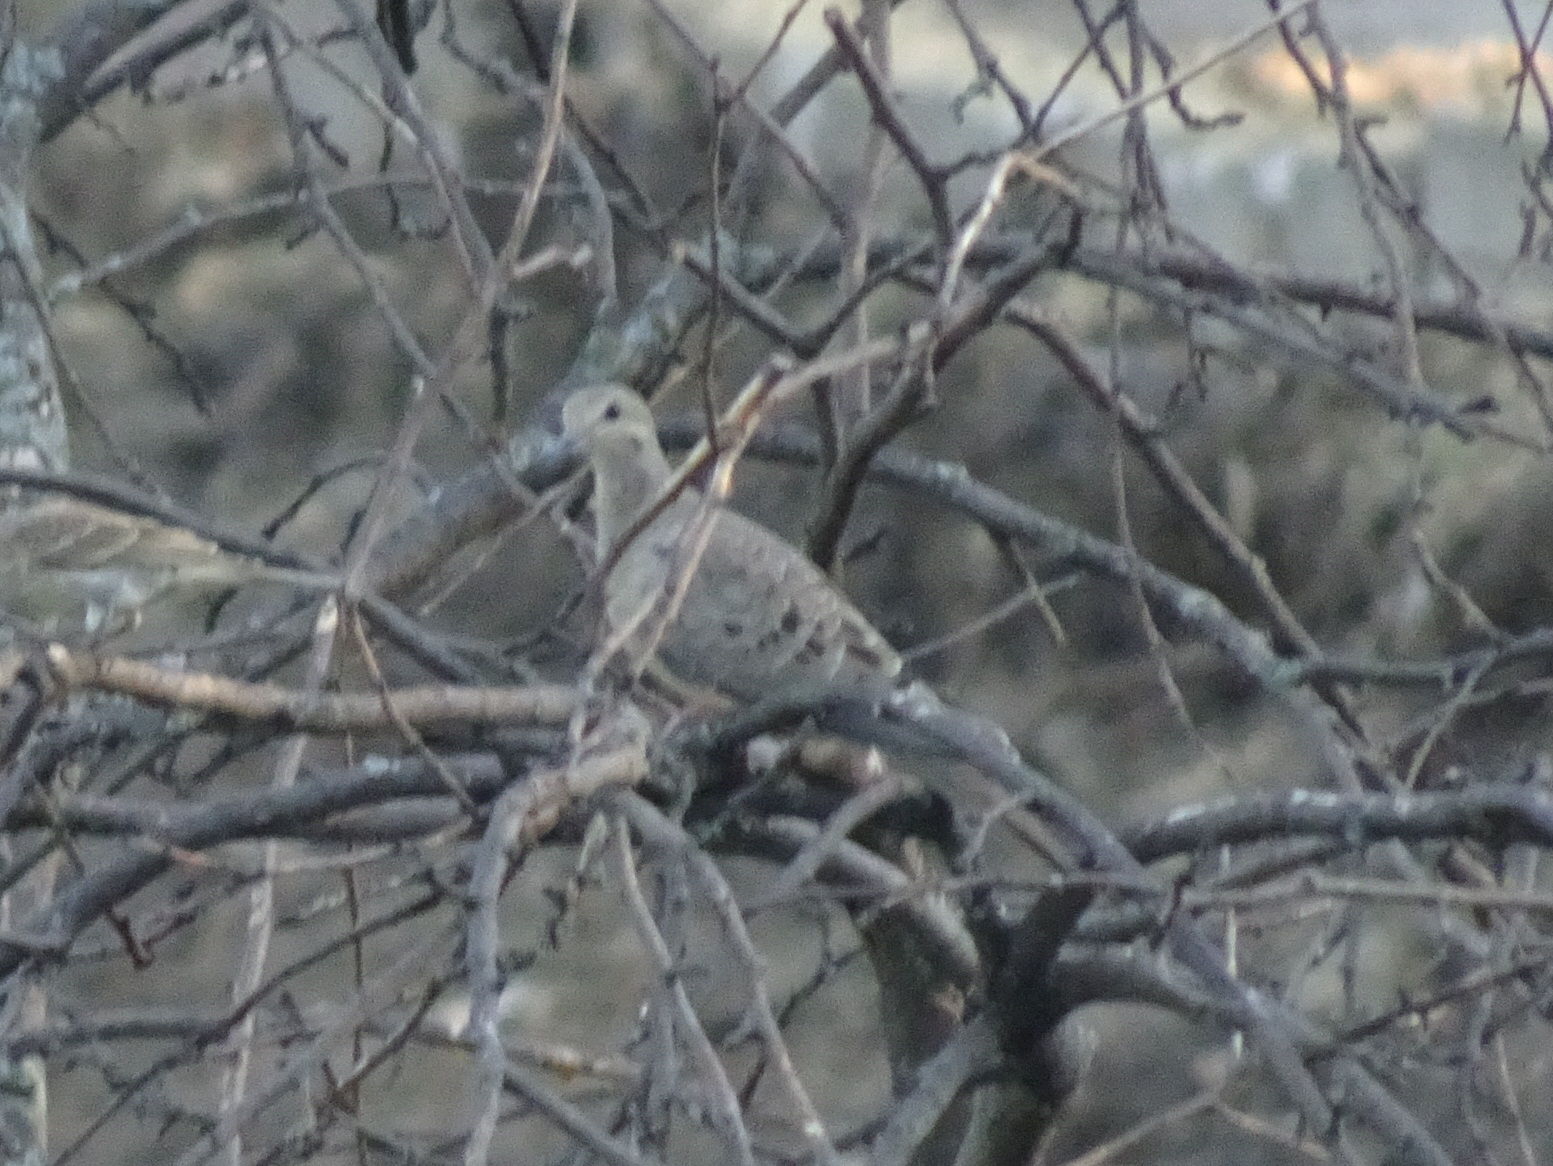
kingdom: Animalia
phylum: Chordata
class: Aves
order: Columbiformes
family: Columbidae
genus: Zenaida
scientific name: Zenaida macroura
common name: Mourning dove
